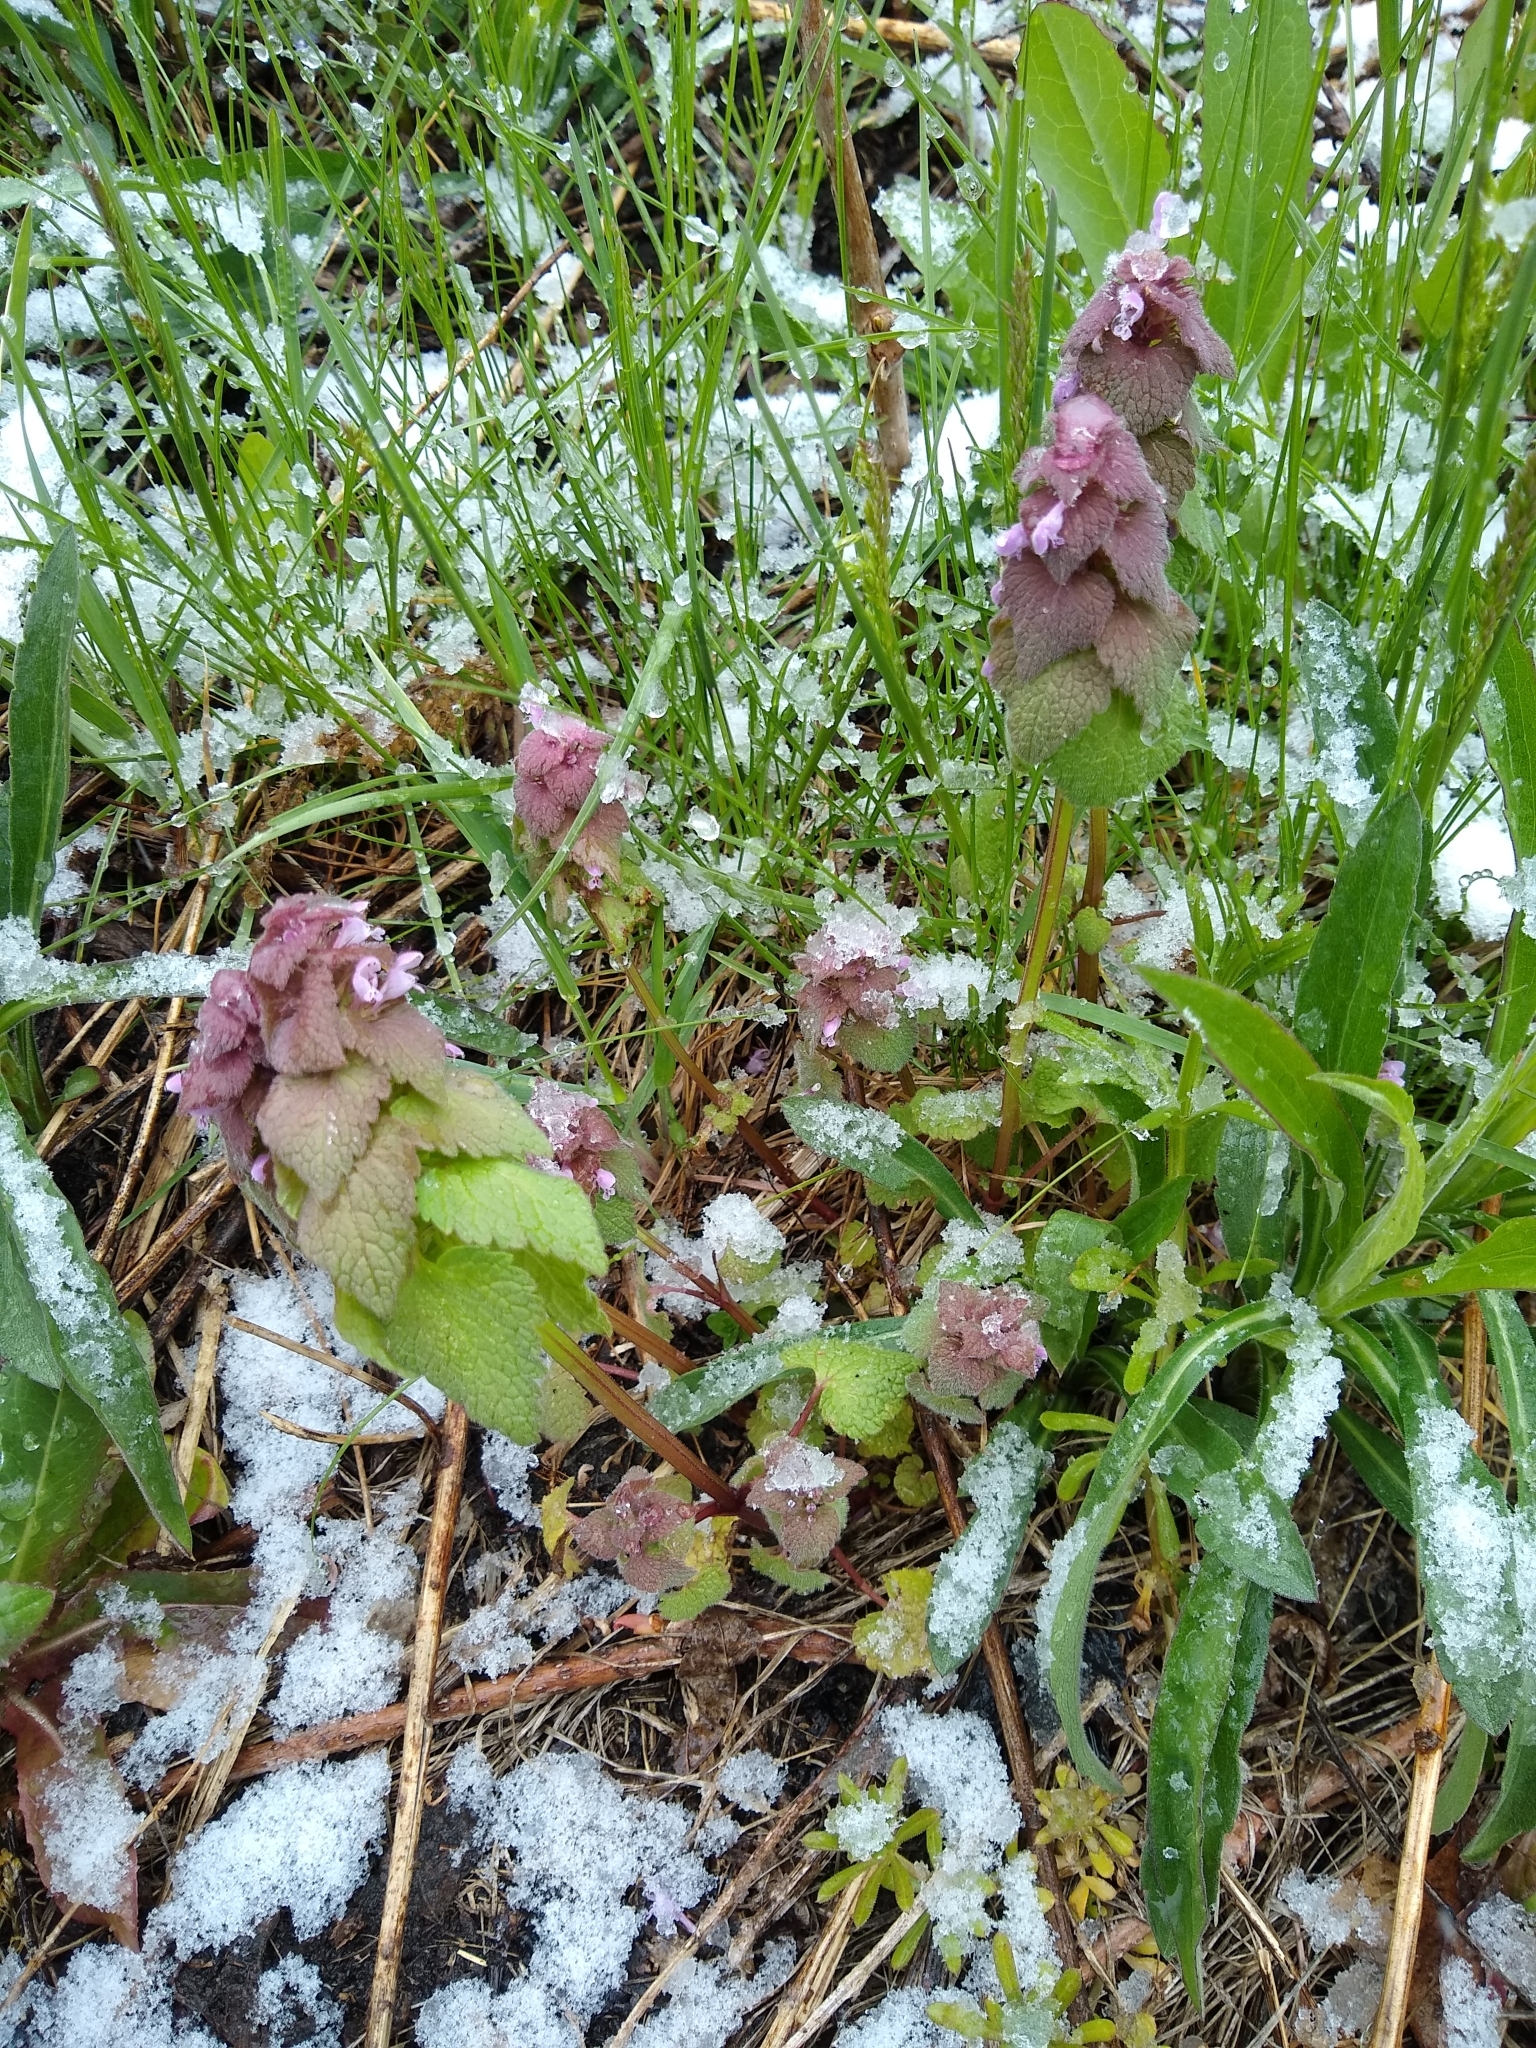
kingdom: Plantae
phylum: Tracheophyta
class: Magnoliopsida
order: Lamiales
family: Lamiaceae
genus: Lamium
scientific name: Lamium purpureum
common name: Red dead-nettle
